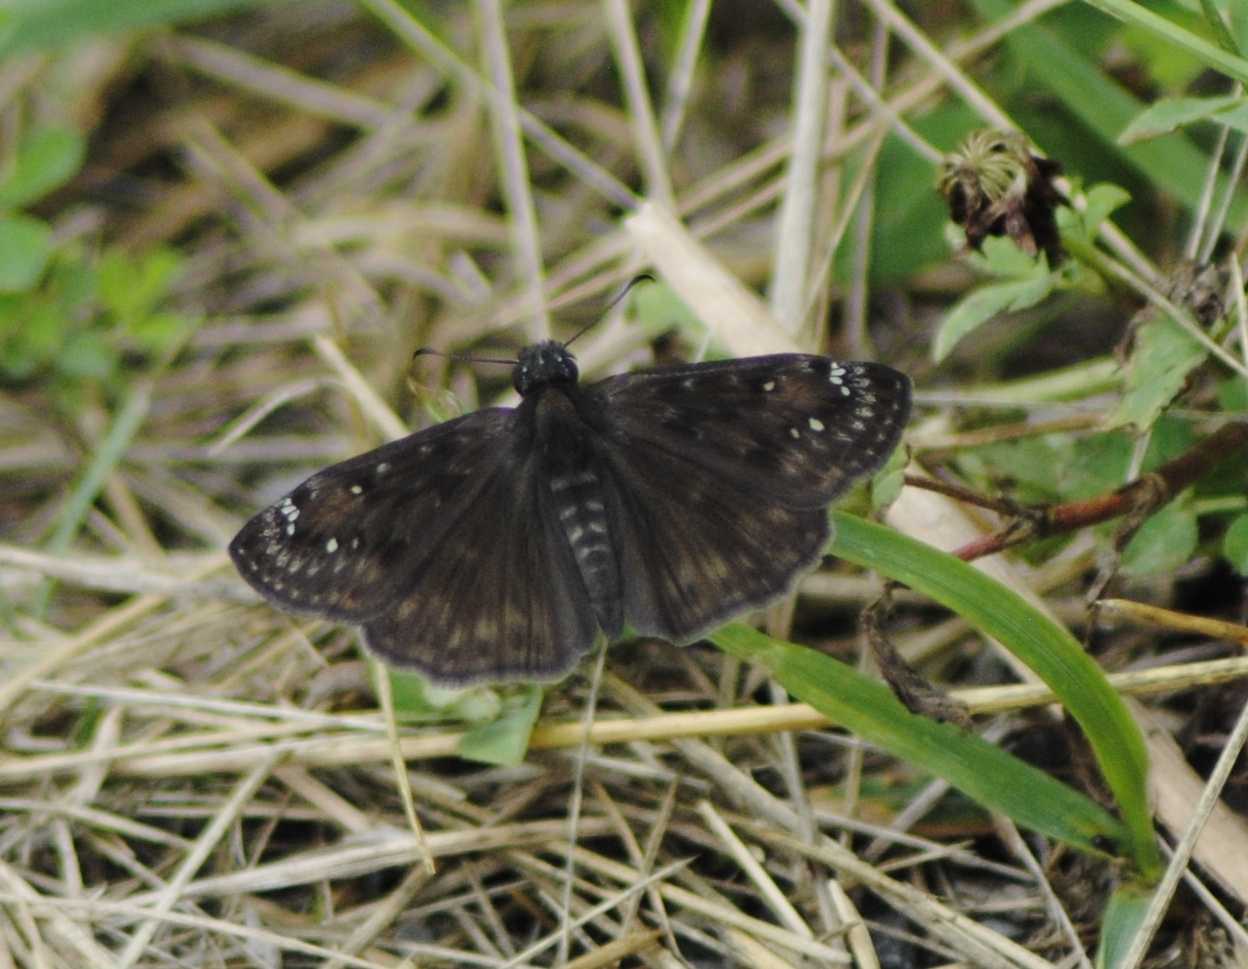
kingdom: Animalia
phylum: Arthropoda
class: Insecta
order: Lepidoptera
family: Hesperiidae
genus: Erynnis
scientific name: Erynnis horatius
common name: Horace's duskywing
